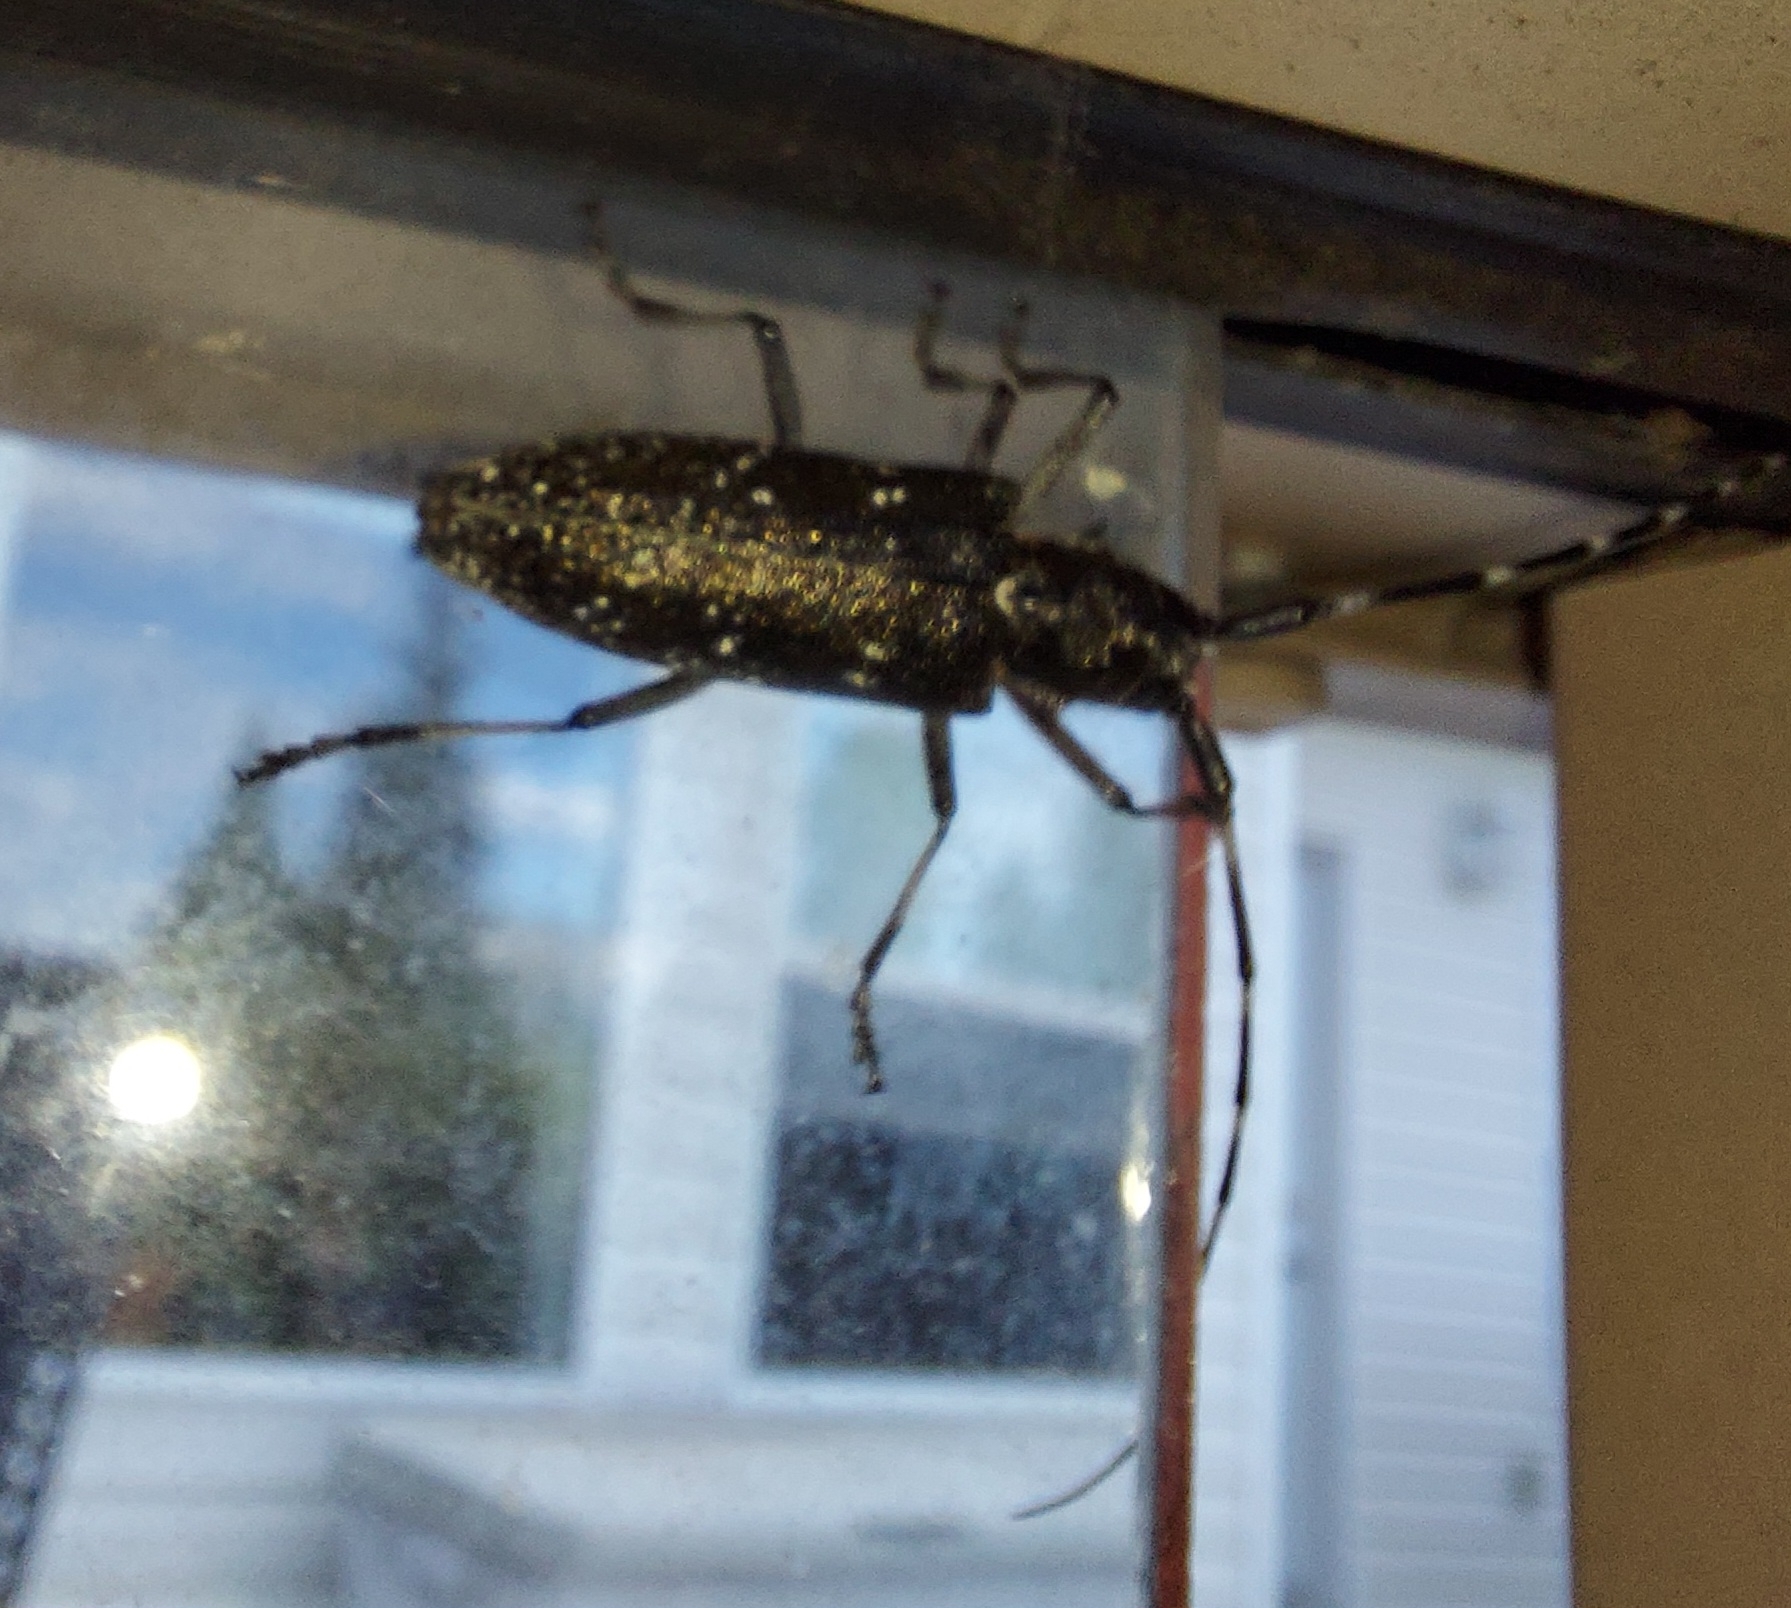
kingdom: Animalia
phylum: Arthropoda
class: Insecta
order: Coleoptera
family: Cerambycidae
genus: Monochamus
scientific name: Monochamus scutellatus
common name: White-spotted sawyer beetle
